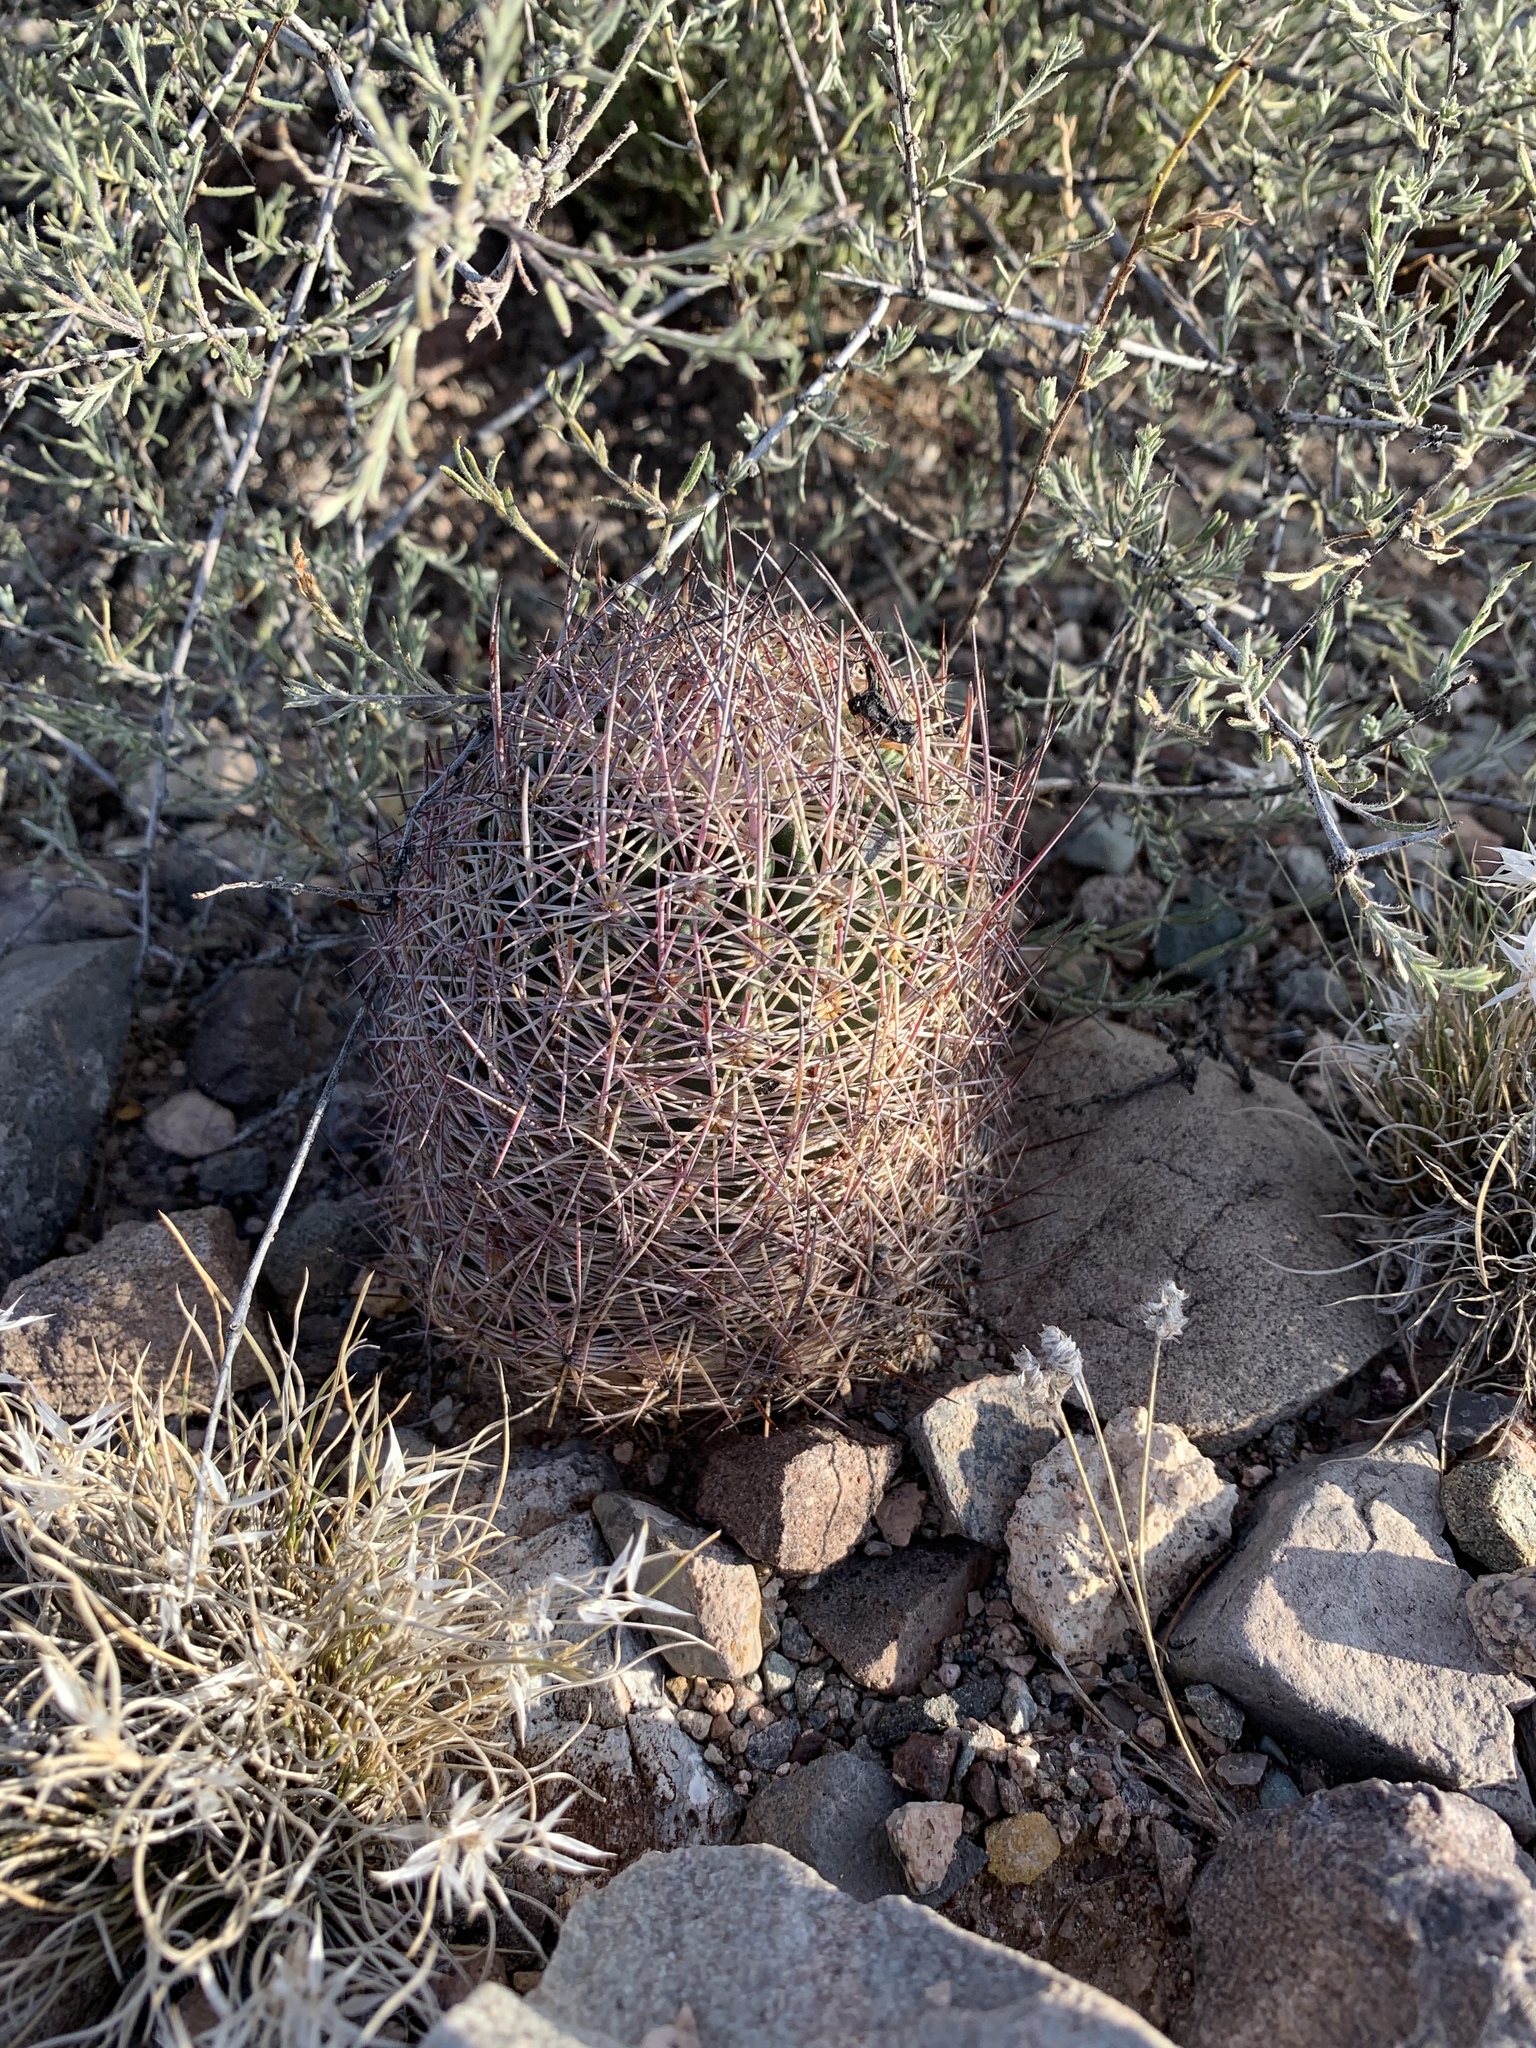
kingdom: Plantae
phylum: Tracheophyta
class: Magnoliopsida
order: Caryophyllales
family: Cactaceae
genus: Sclerocactus
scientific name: Sclerocactus johnsonii
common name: Eight-spine fishhook cactus
